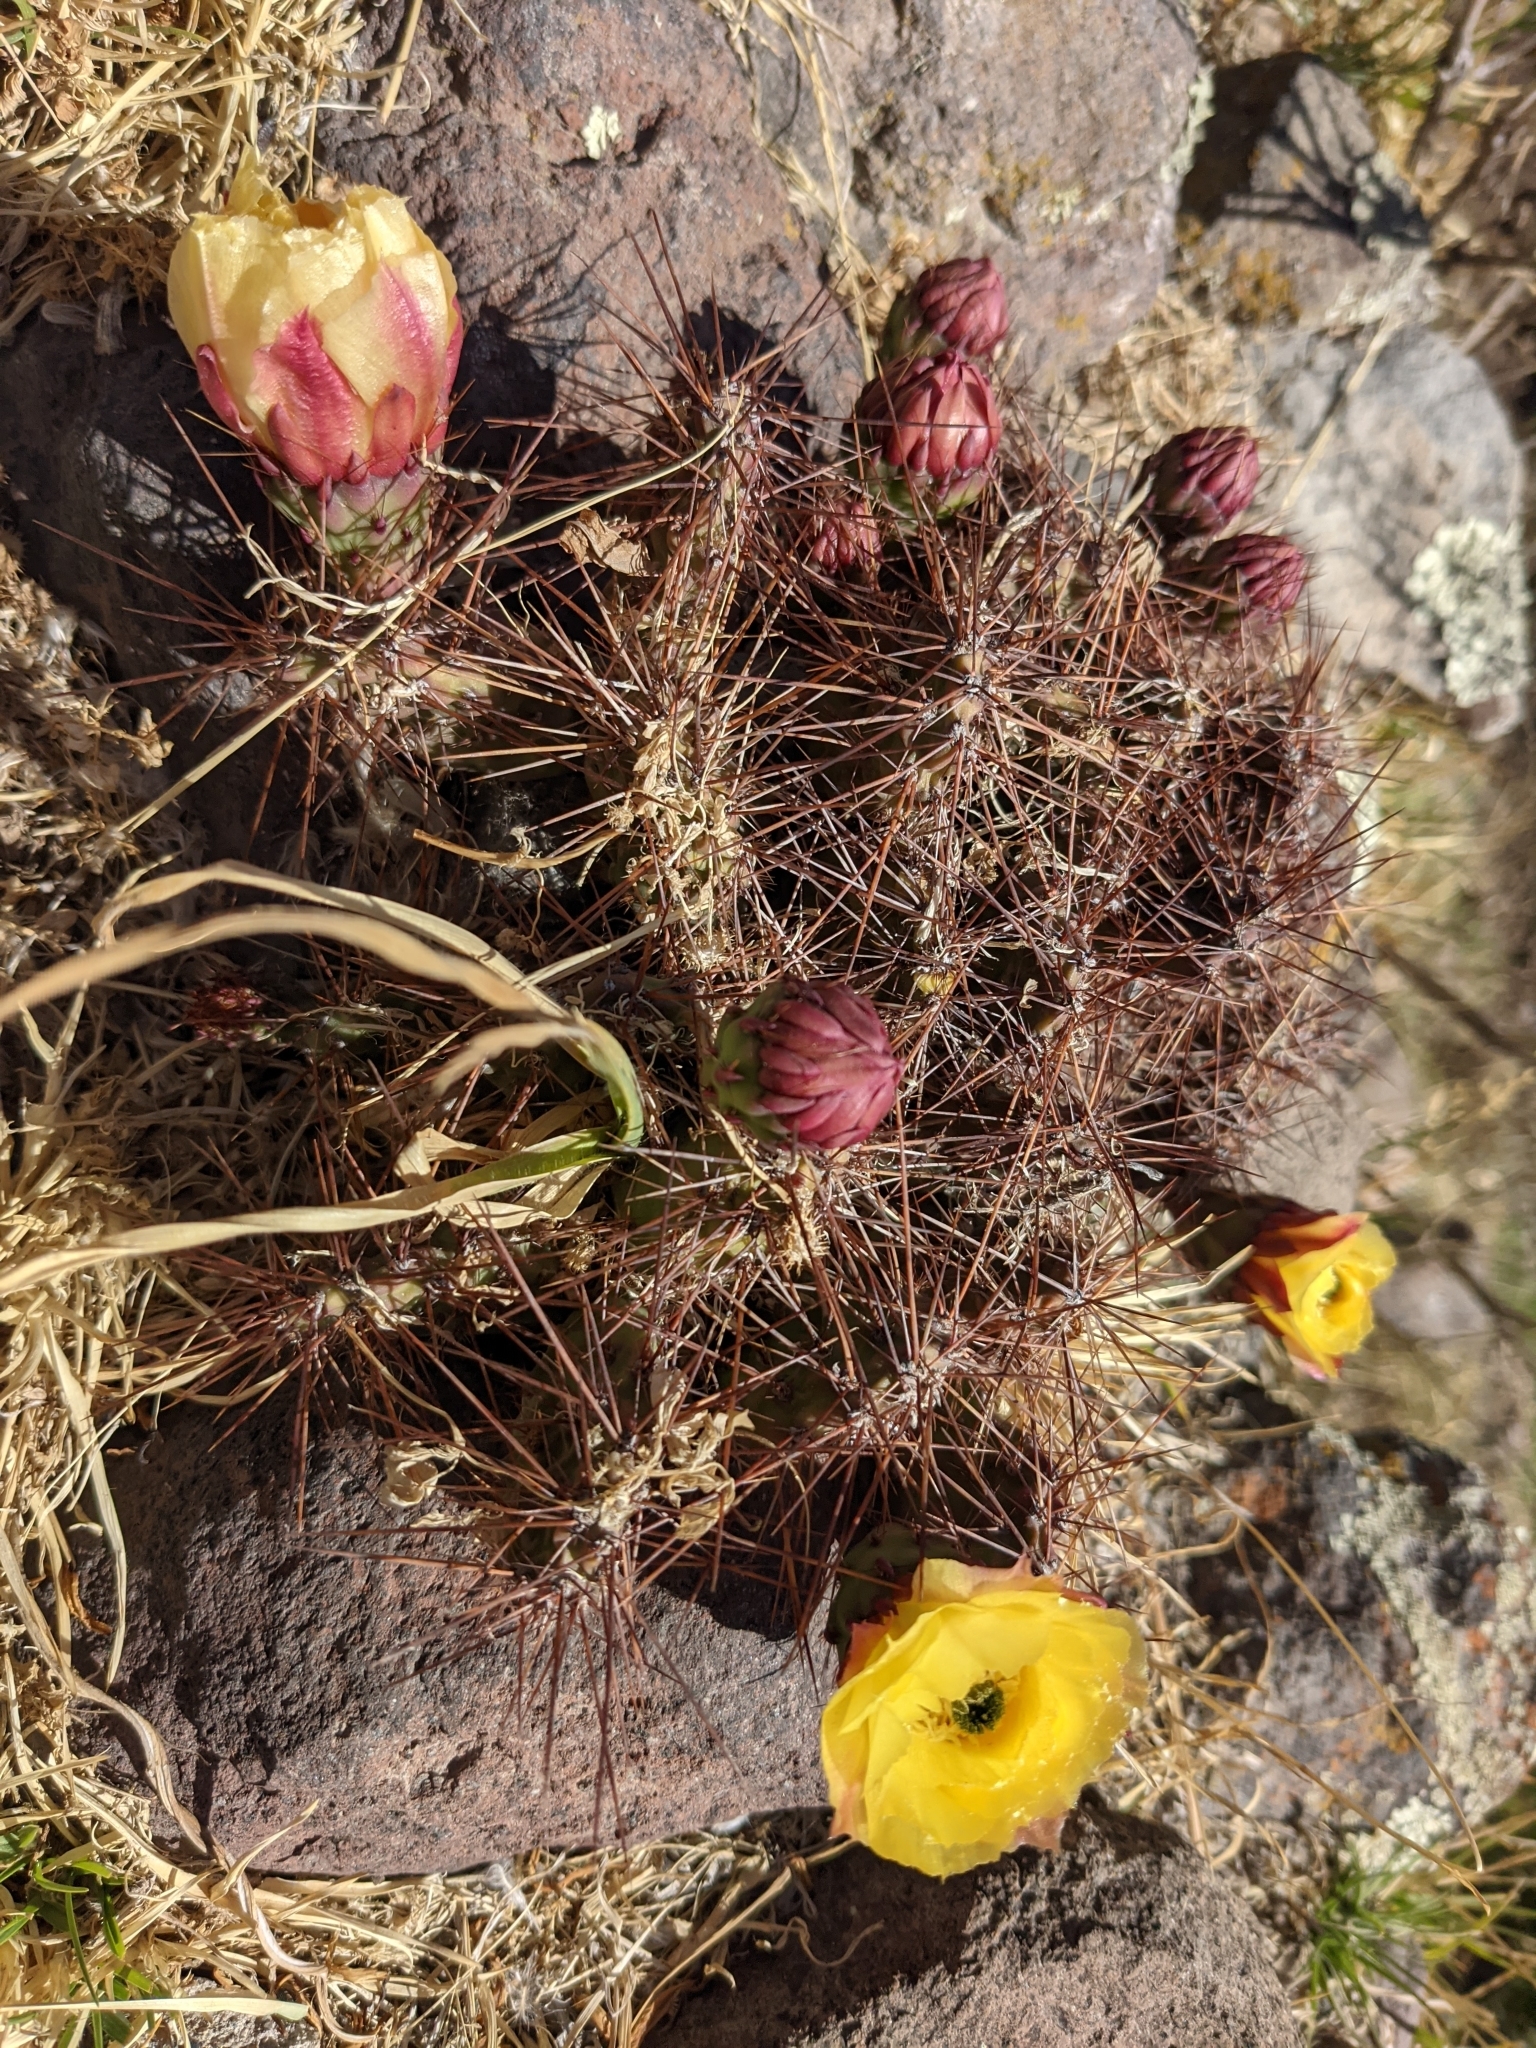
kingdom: Plantae
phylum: Tracheophyta
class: Magnoliopsida
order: Caryophyllales
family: Cactaceae
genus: Airampoa
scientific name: Airampoa soehrensii
